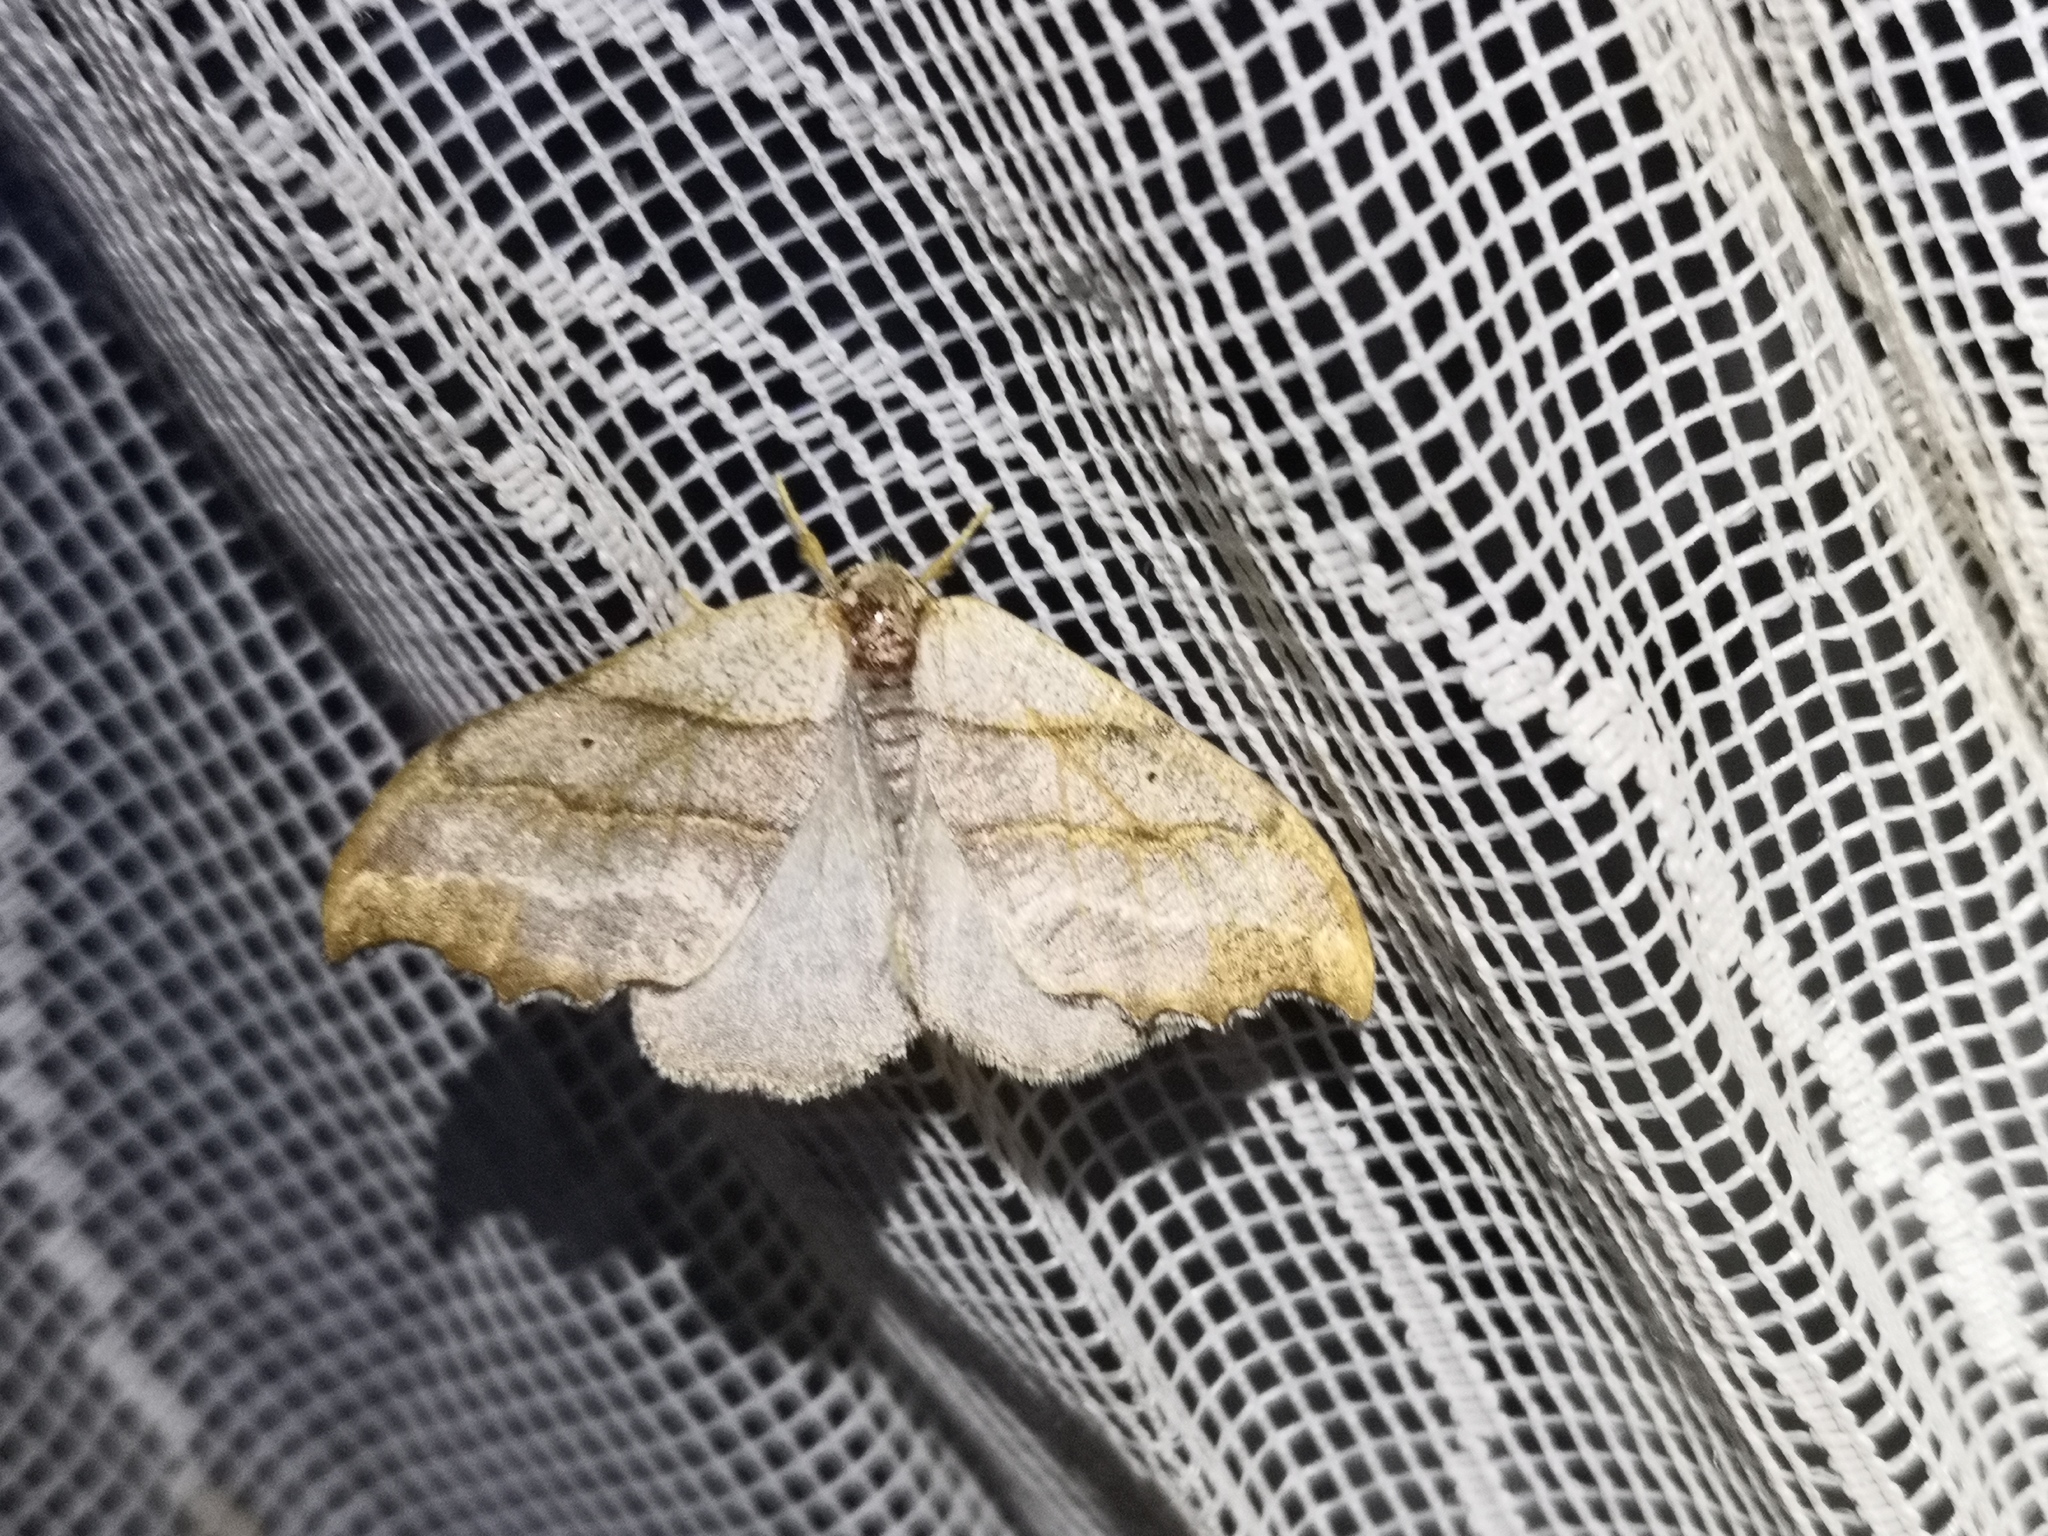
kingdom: Animalia
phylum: Arthropoda
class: Insecta
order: Lepidoptera
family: Drepanidae
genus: Falcaria
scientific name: Falcaria lacertinaria
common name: Scalloped hook-tip
